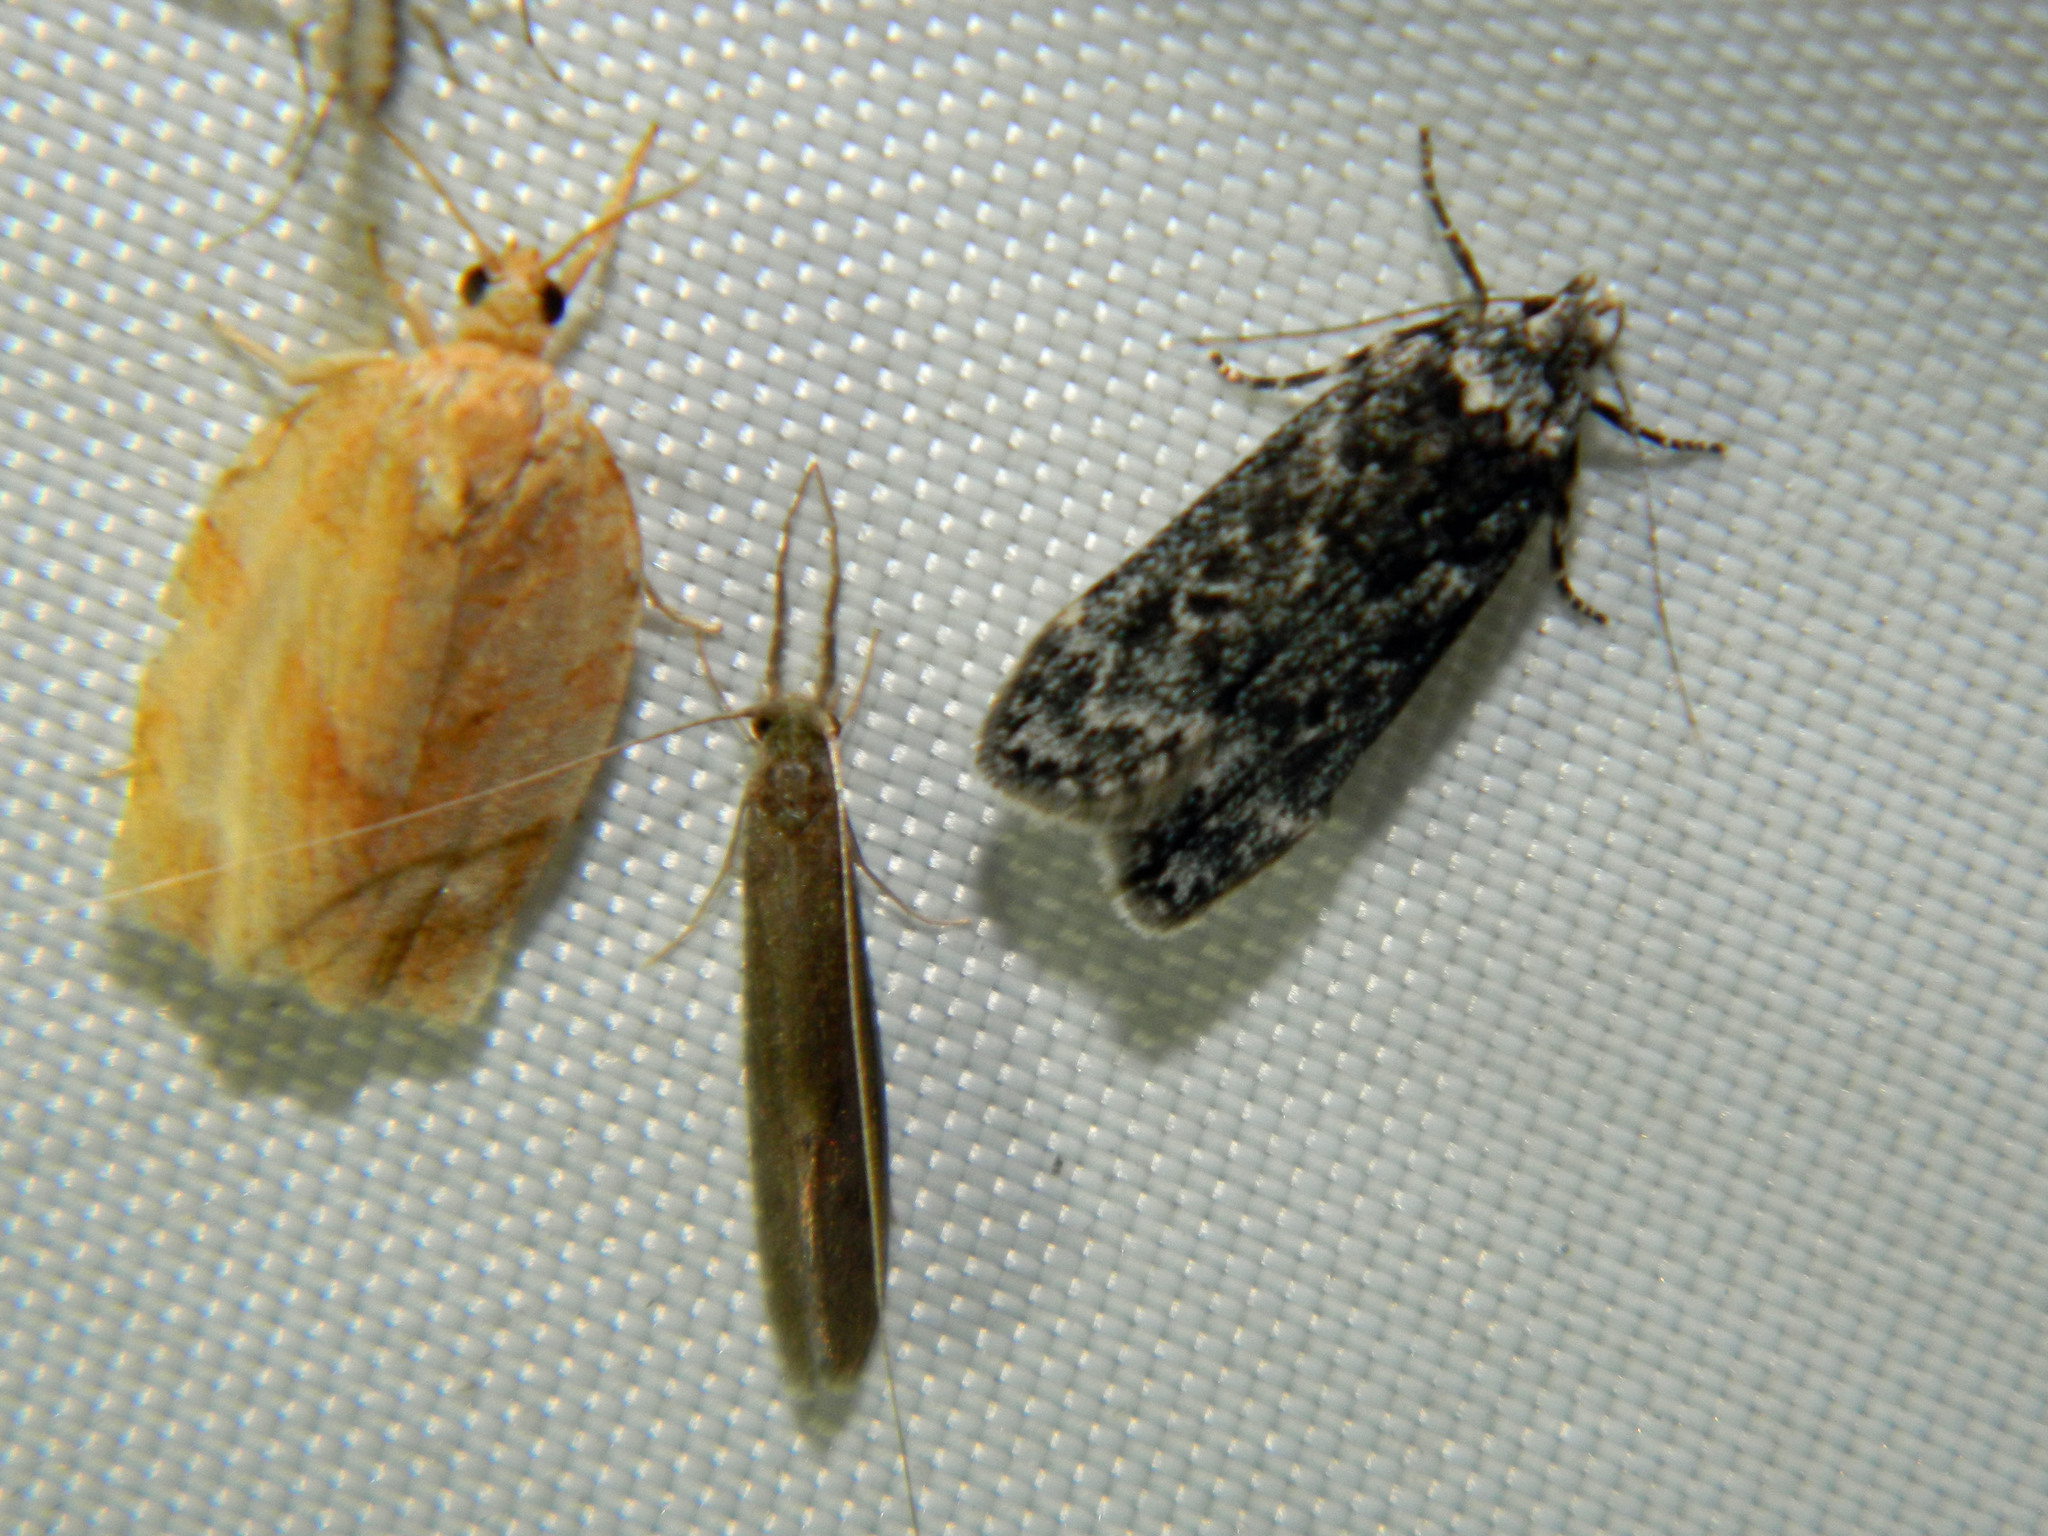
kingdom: Animalia
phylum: Arthropoda
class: Insecta
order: Lepidoptera
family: Gelechiidae
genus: Anacampsis
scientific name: Anacampsis niveopulvella
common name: Pale-headed aspen leafroller moth
